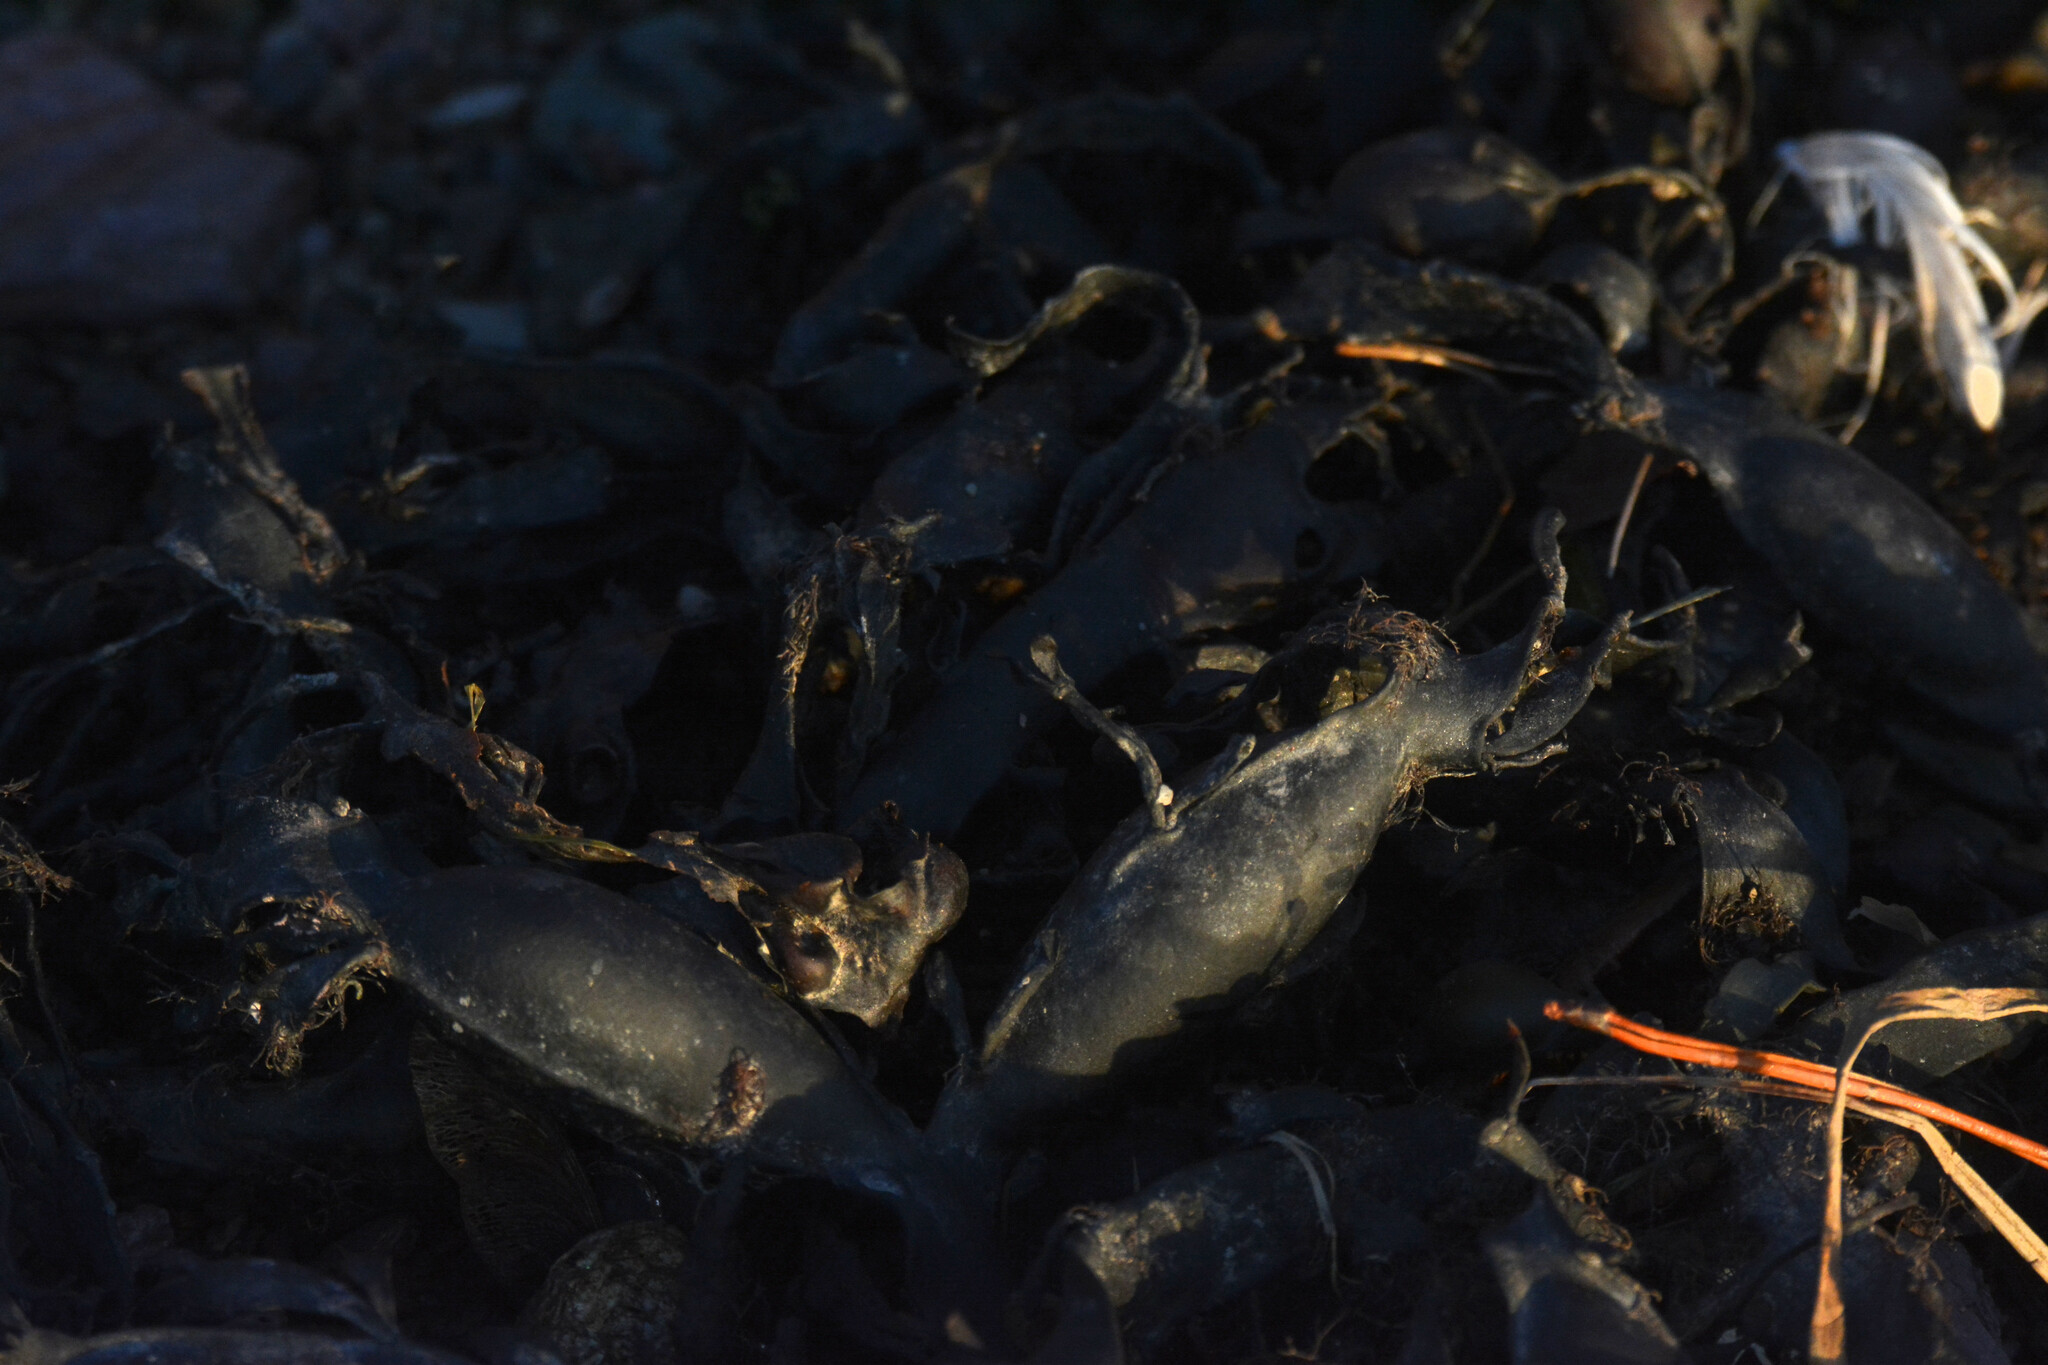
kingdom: Chromista
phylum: Ochrophyta
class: Phaeophyceae
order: Fucales
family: Fucaceae
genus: Ascophyllum
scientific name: Ascophyllum nodosum
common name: Knotted wrack
